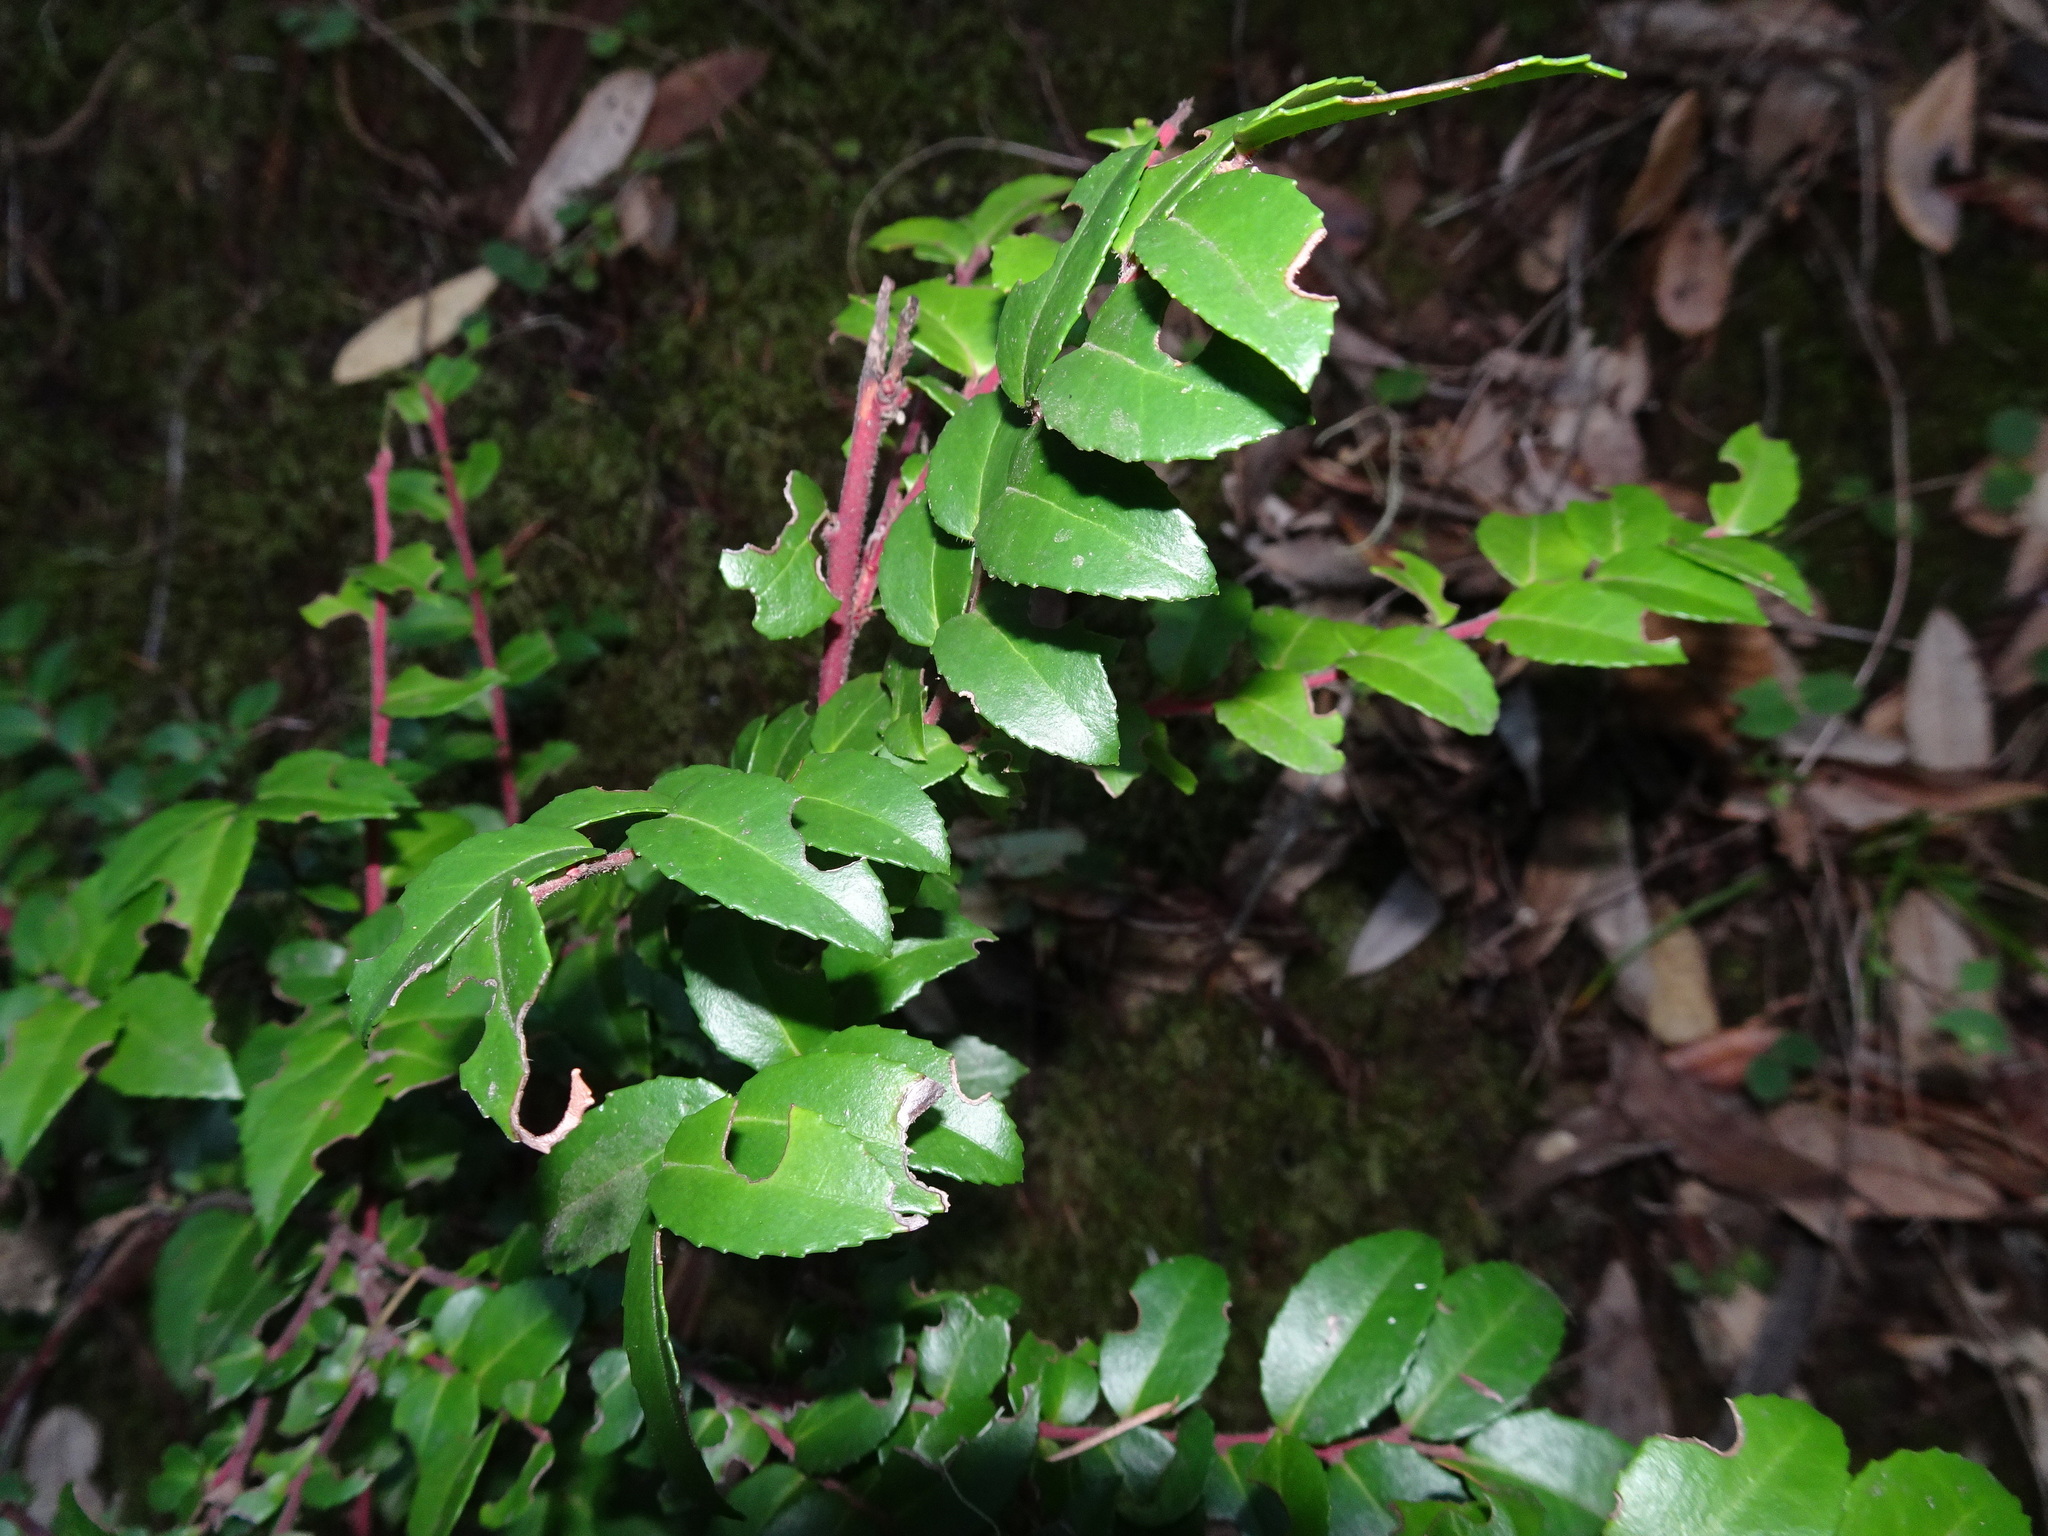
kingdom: Plantae
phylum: Tracheophyta
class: Magnoliopsida
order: Ericales
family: Ericaceae
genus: Vaccinium
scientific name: Vaccinium ovatum
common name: California-huckleberry
